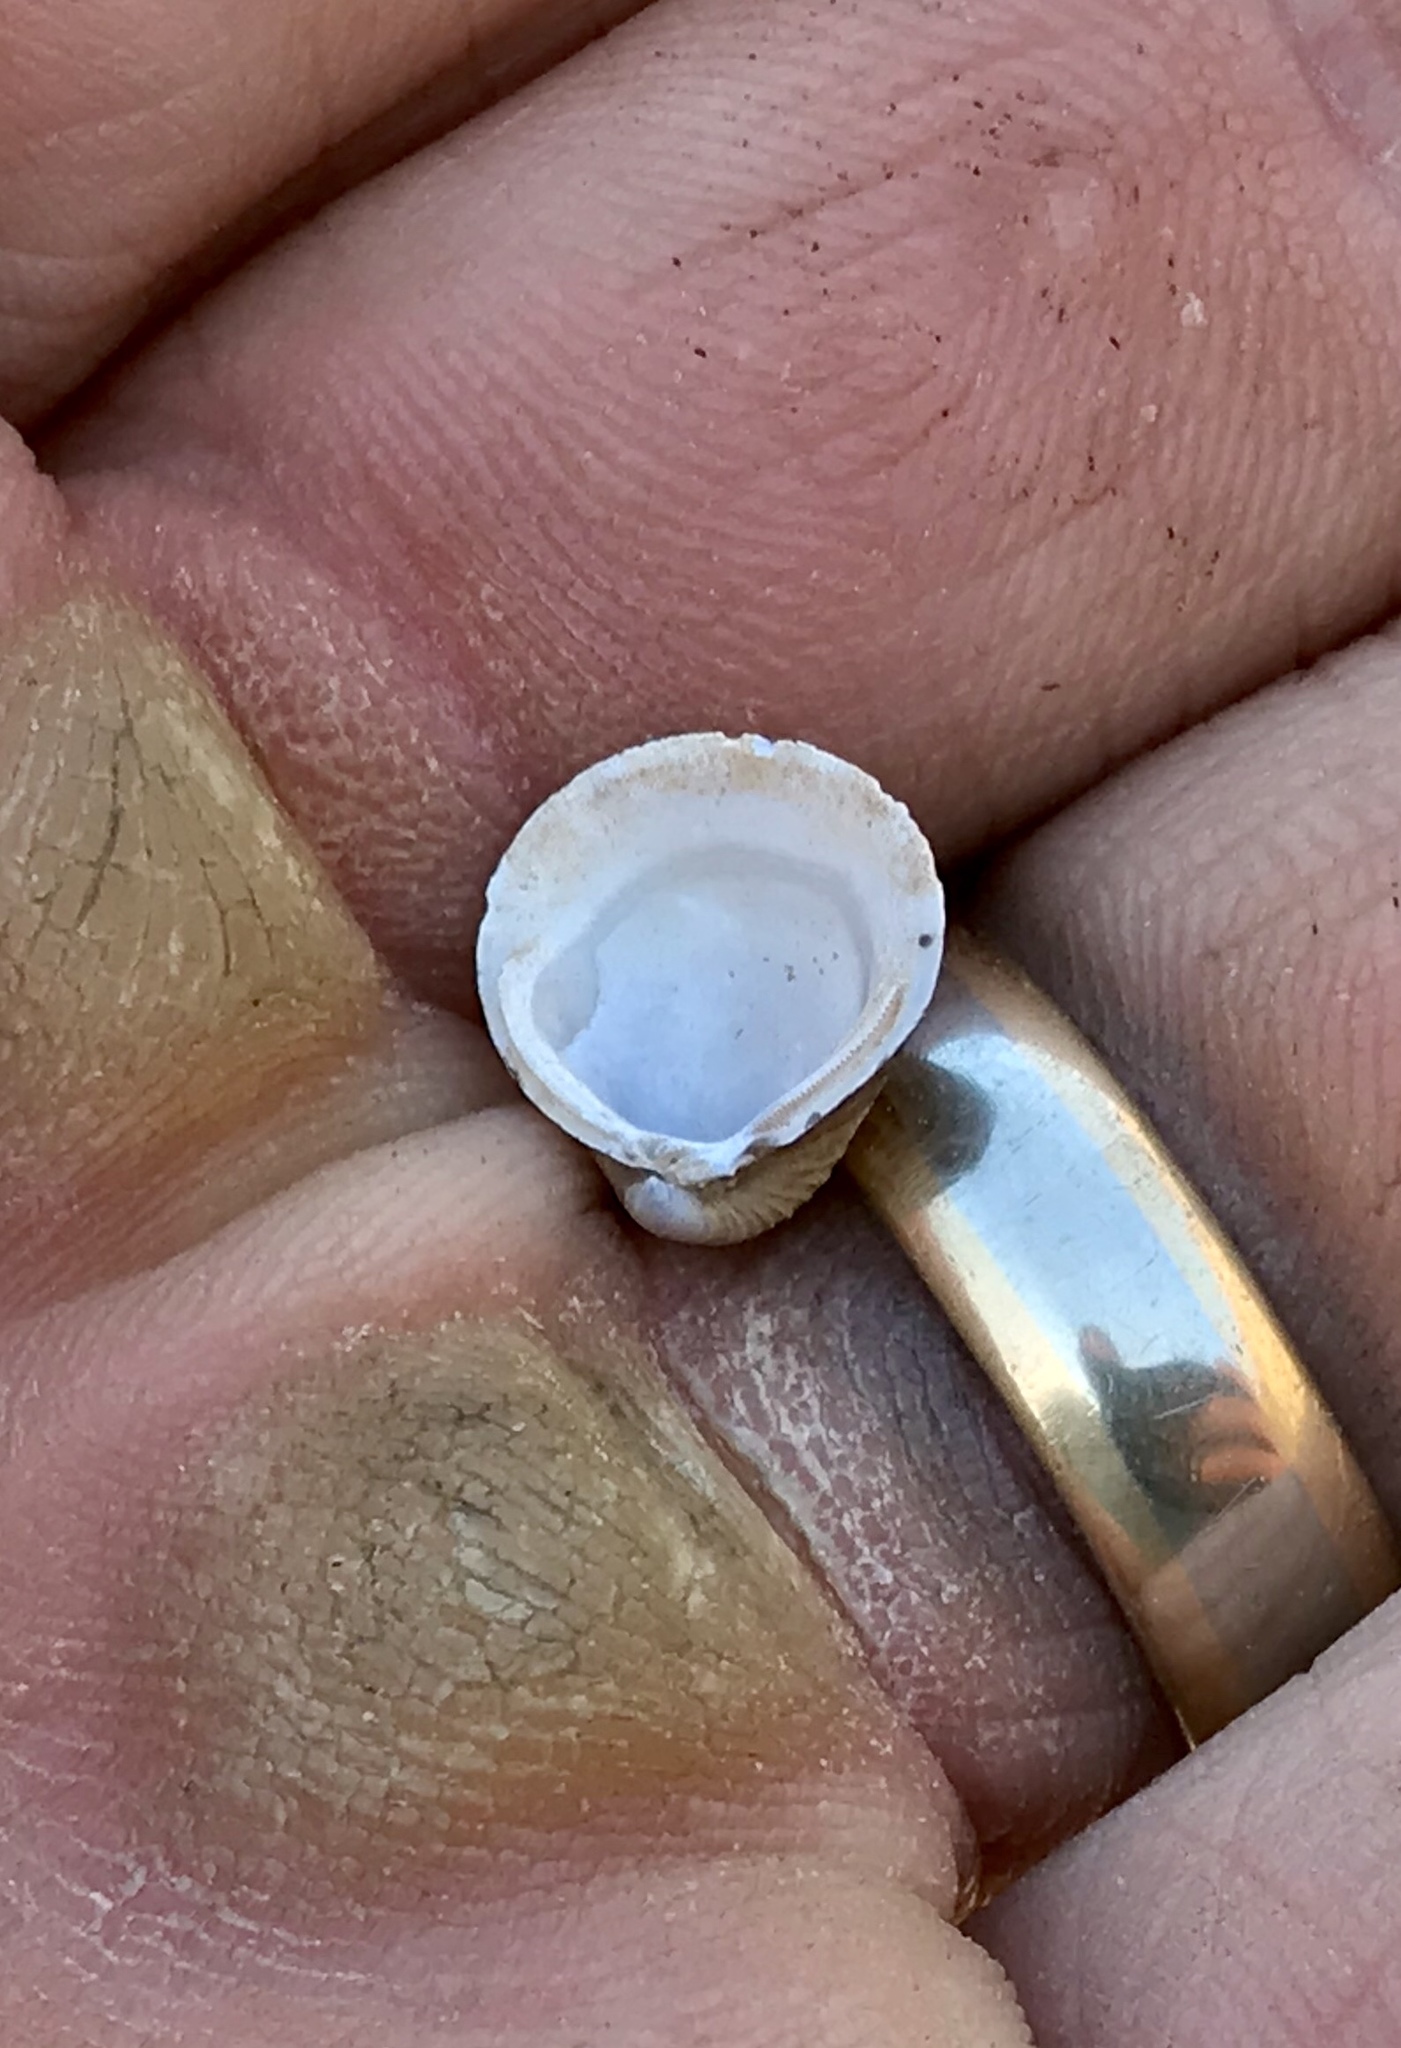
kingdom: Animalia
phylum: Mollusca
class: Bivalvia
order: Venerida
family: Cyrenidae
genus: Corbicula
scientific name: Corbicula fluminea
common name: Asian clam
